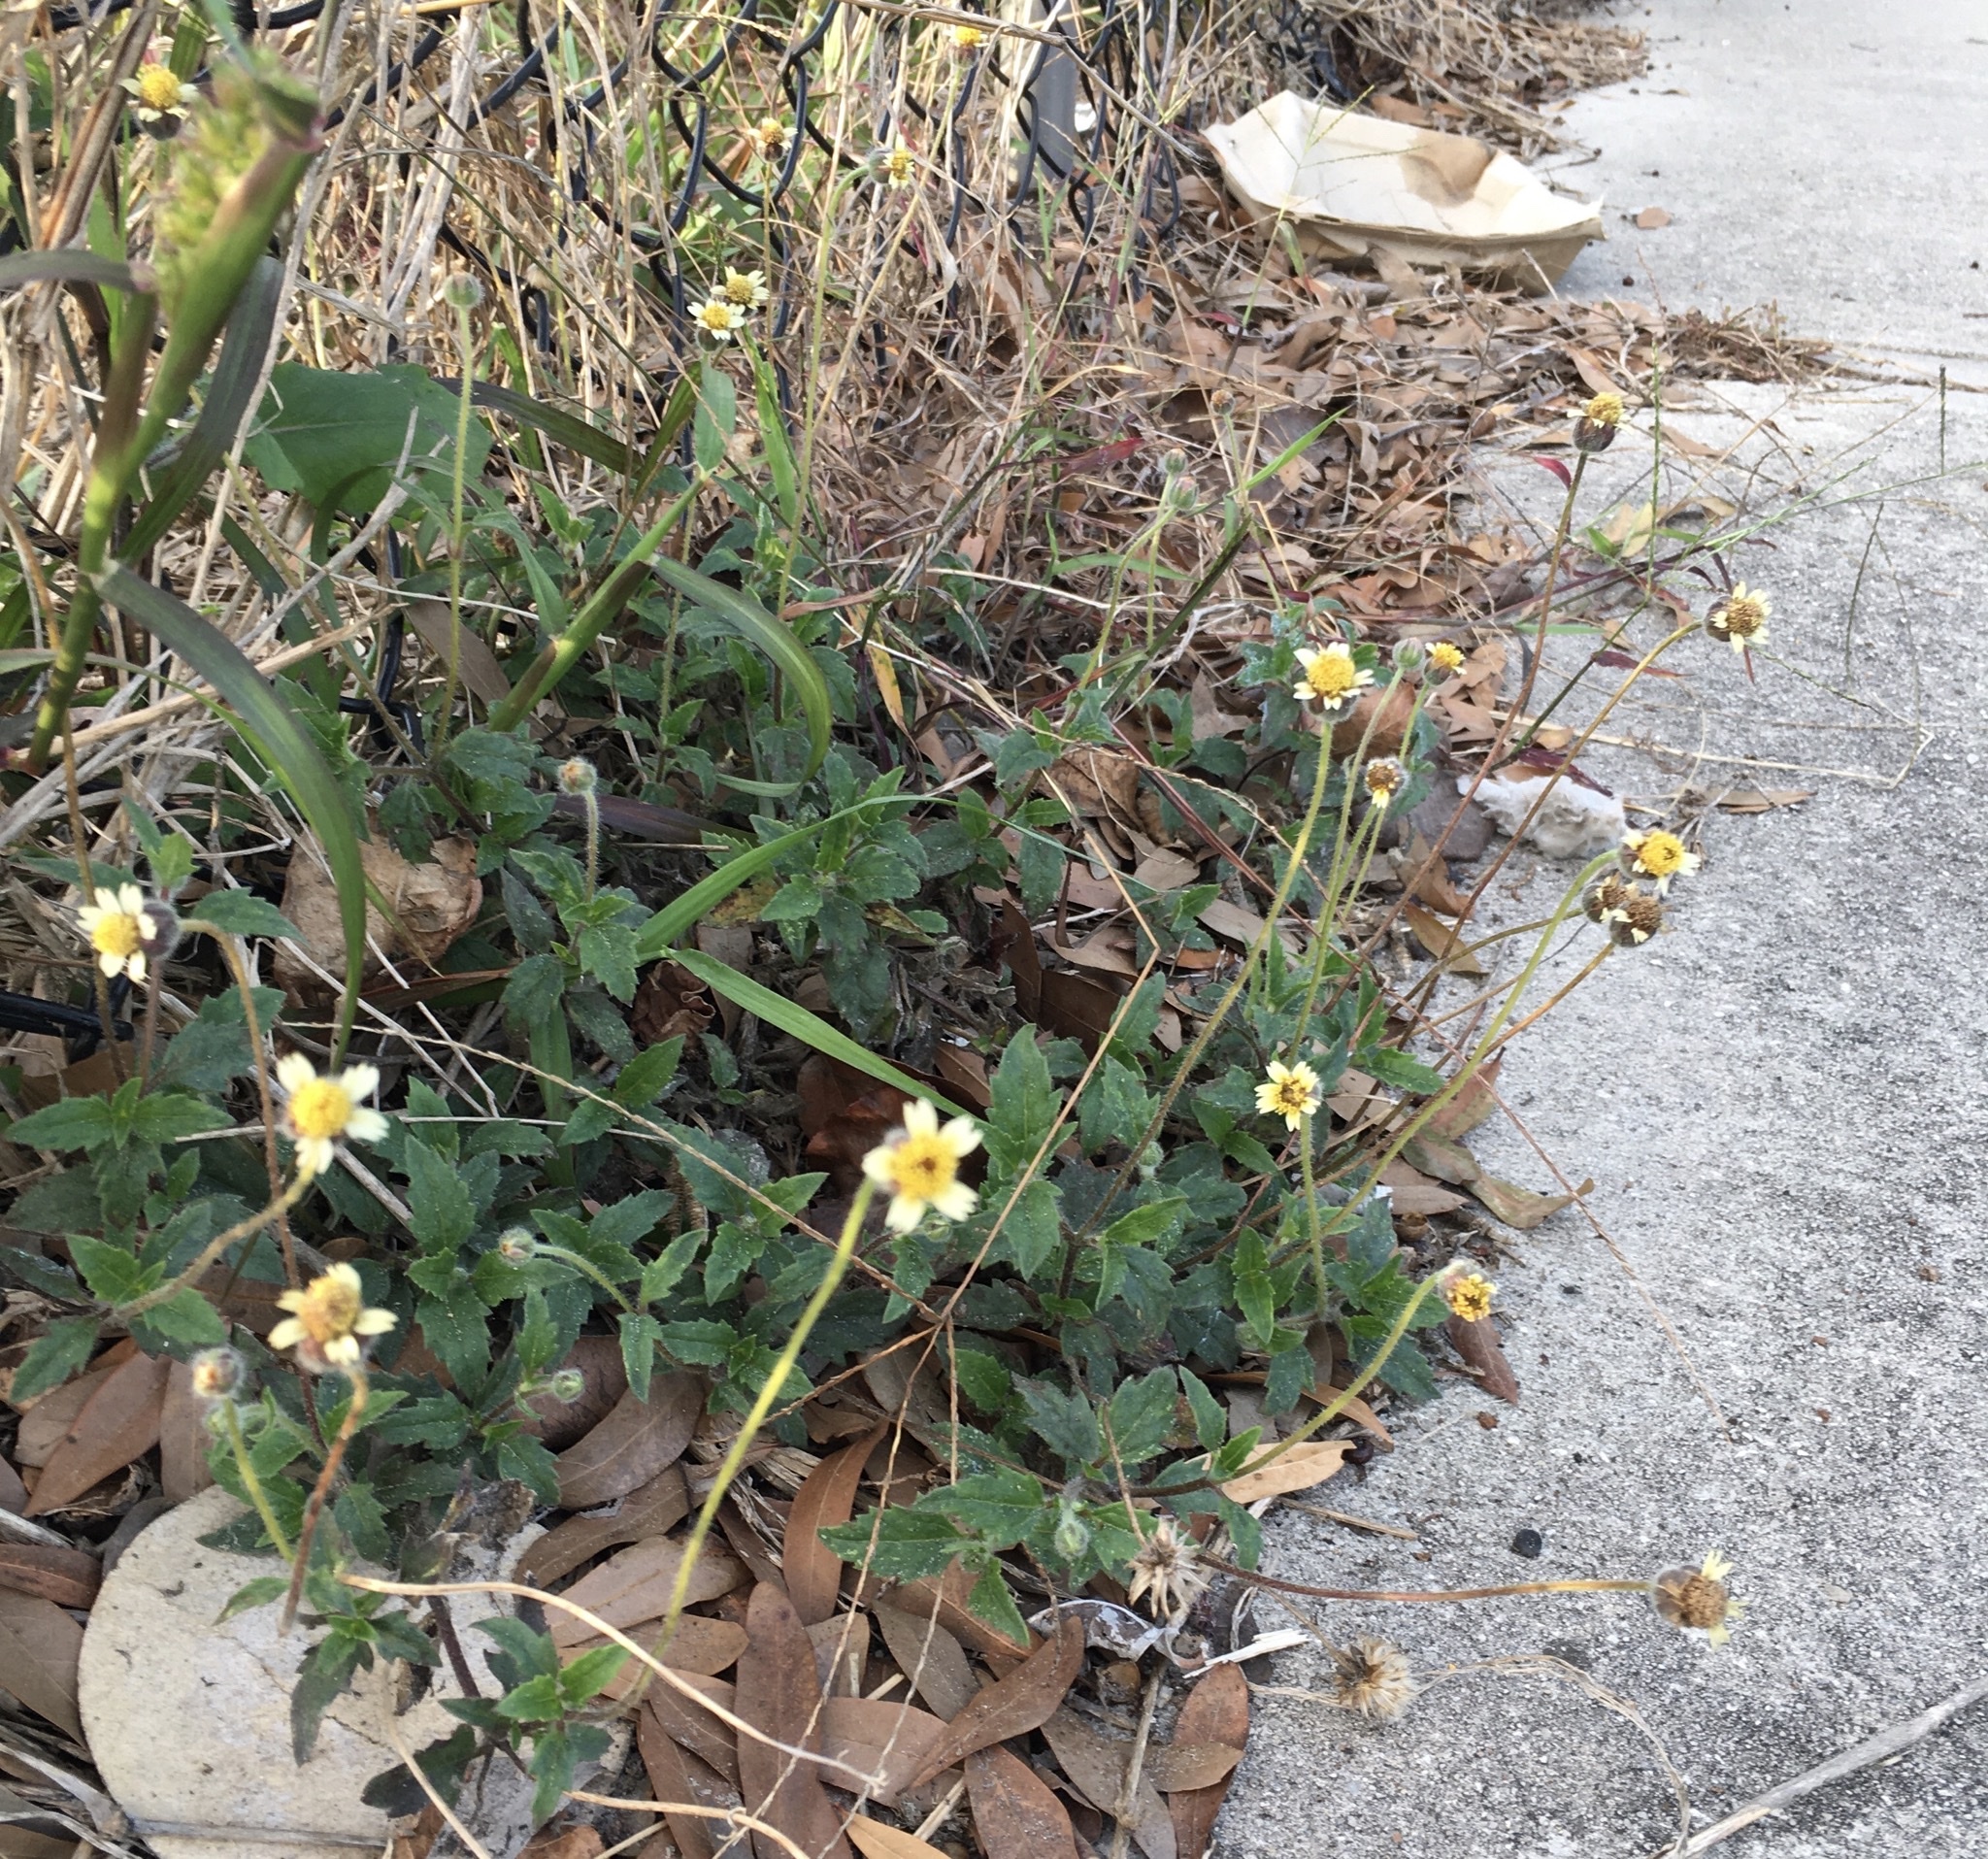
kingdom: Plantae
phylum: Tracheophyta
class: Magnoliopsida
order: Asterales
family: Asteraceae
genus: Tridax
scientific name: Tridax procumbens
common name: Coatbuttons
